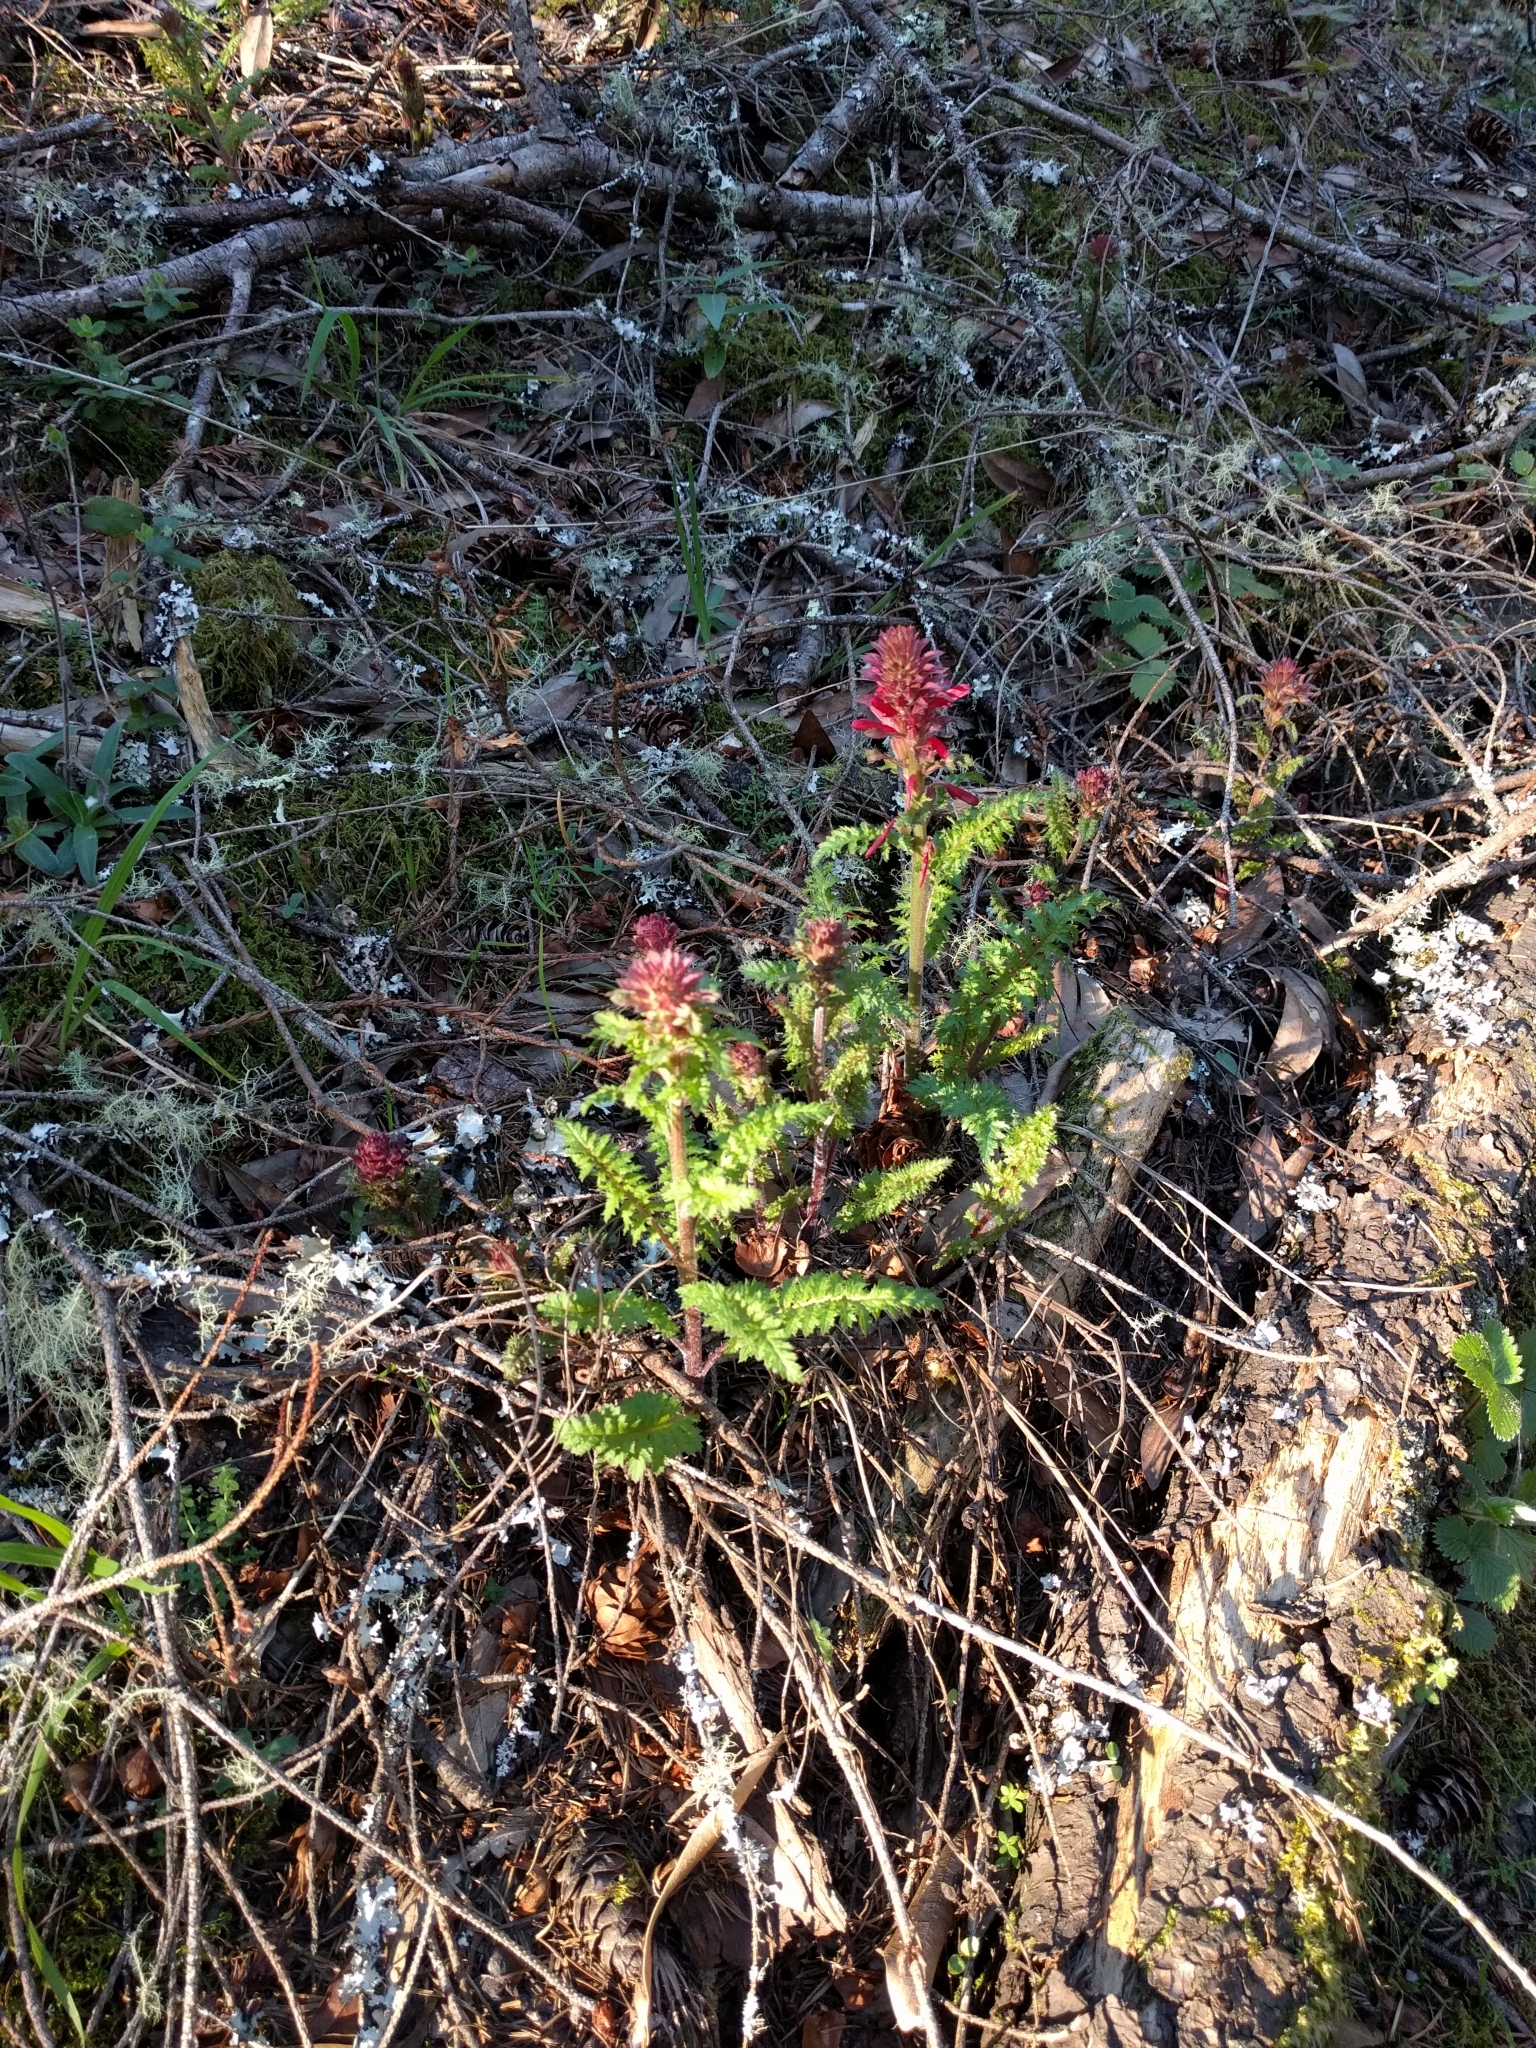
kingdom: Plantae
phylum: Tracheophyta
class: Magnoliopsida
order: Lamiales
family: Orobanchaceae
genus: Pedicularis
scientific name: Pedicularis densiflora
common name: Indian warrior
